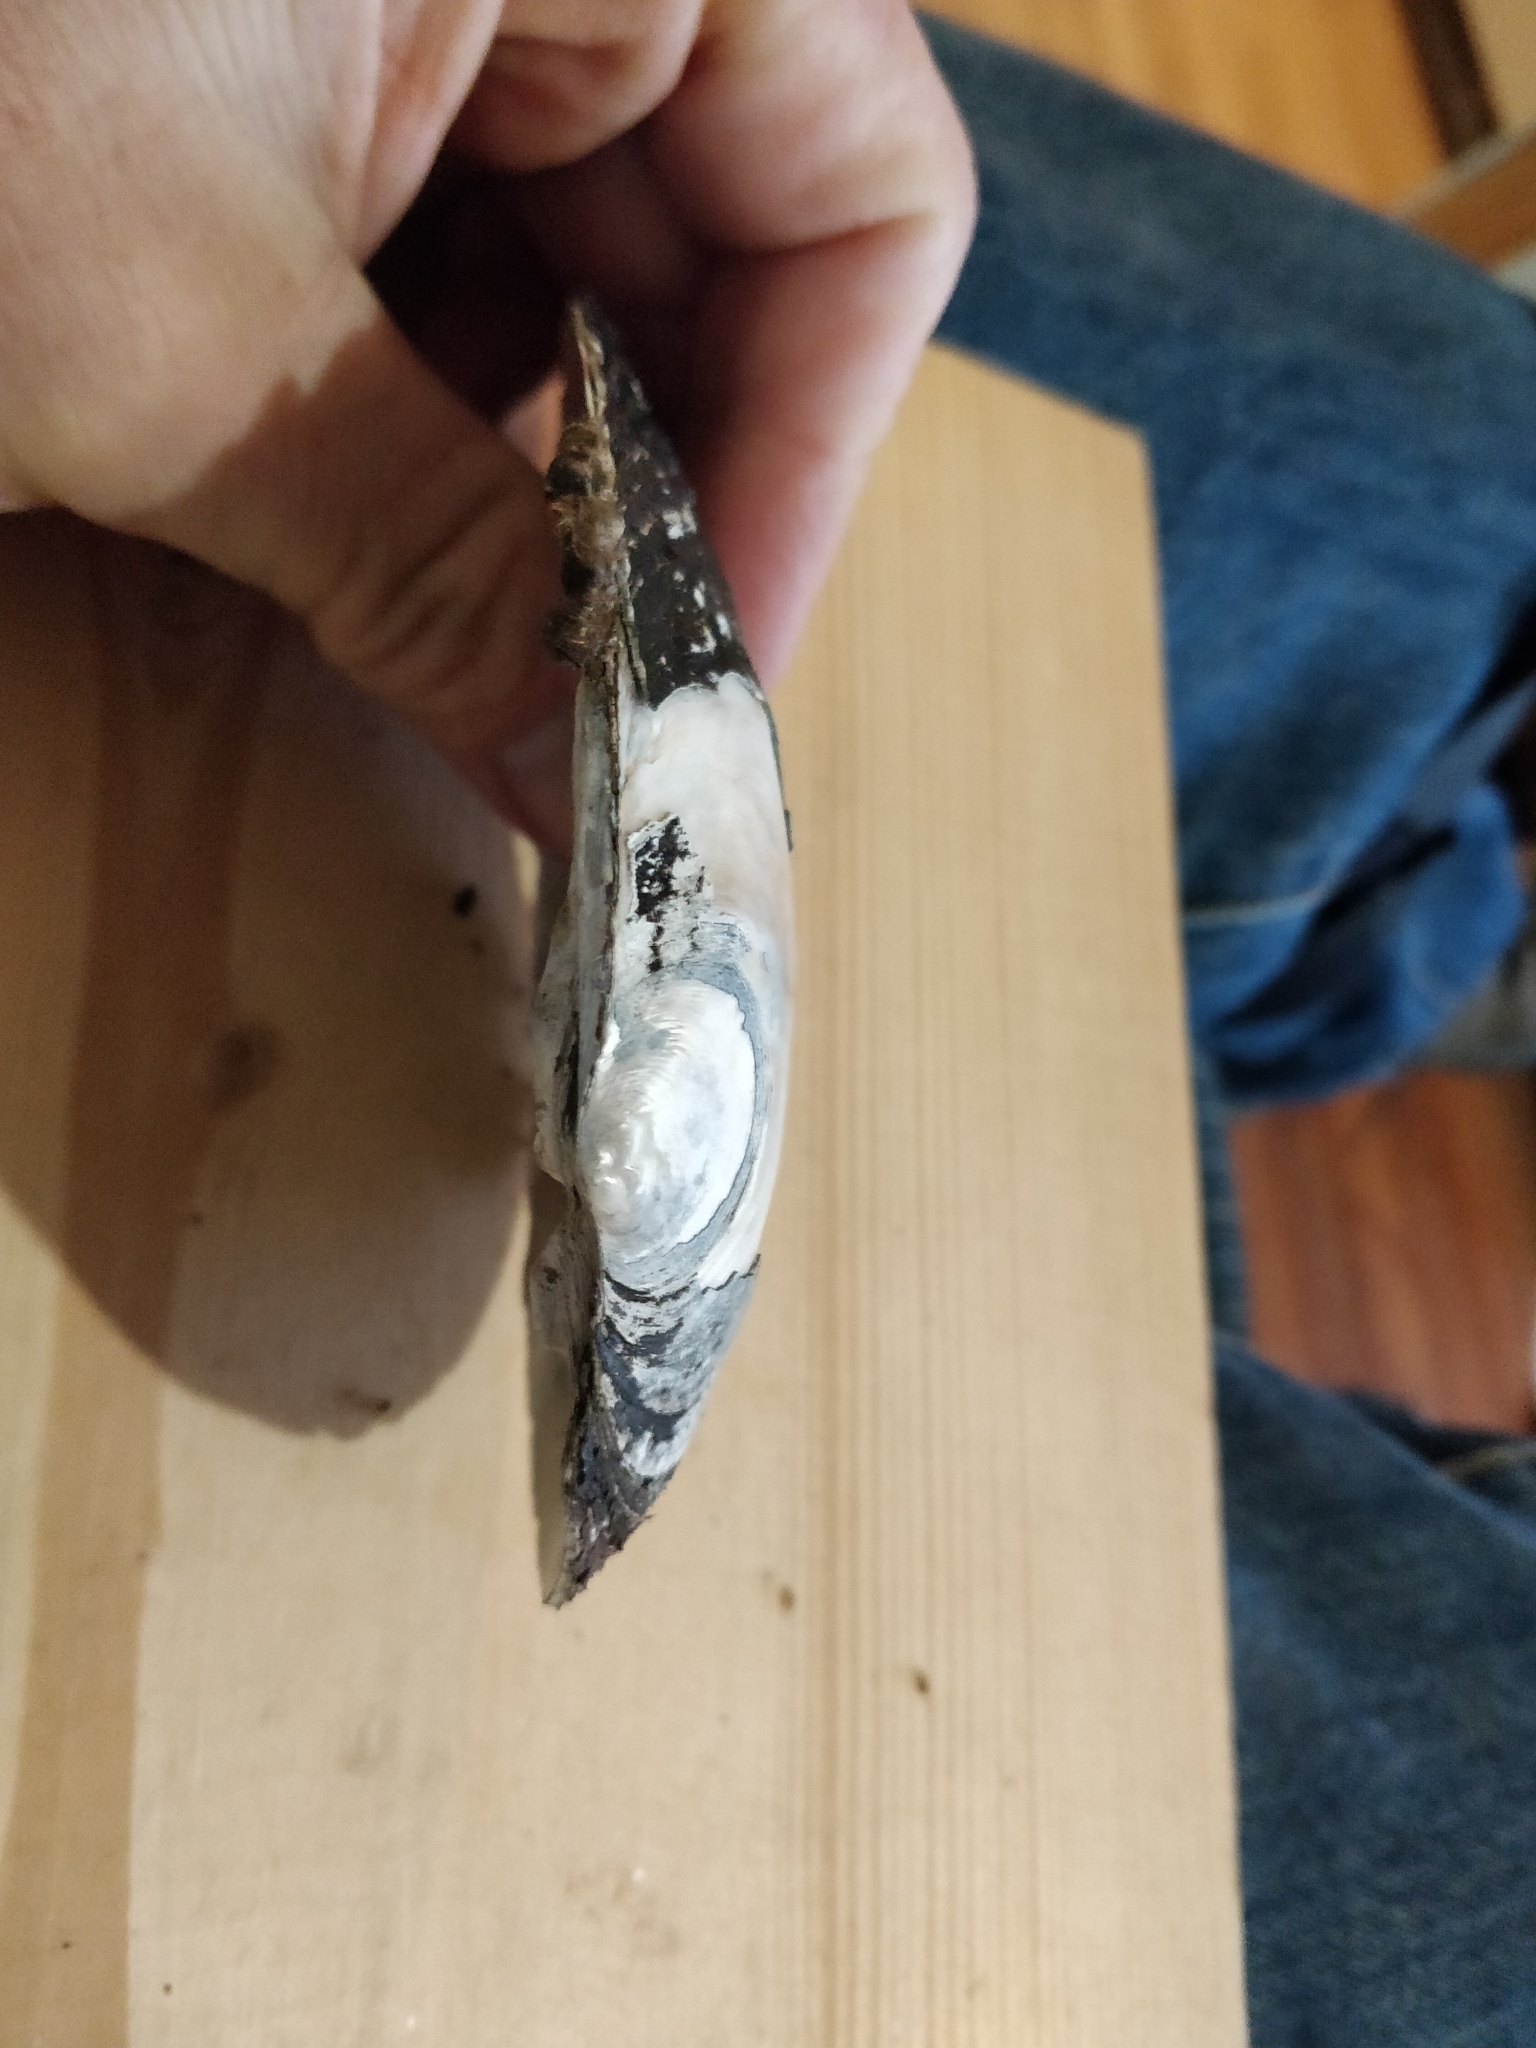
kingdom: Animalia
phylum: Mollusca
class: Bivalvia
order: Unionida
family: Unionidae
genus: Lasmigona
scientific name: Lasmigona complanata
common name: White heelsplitter
